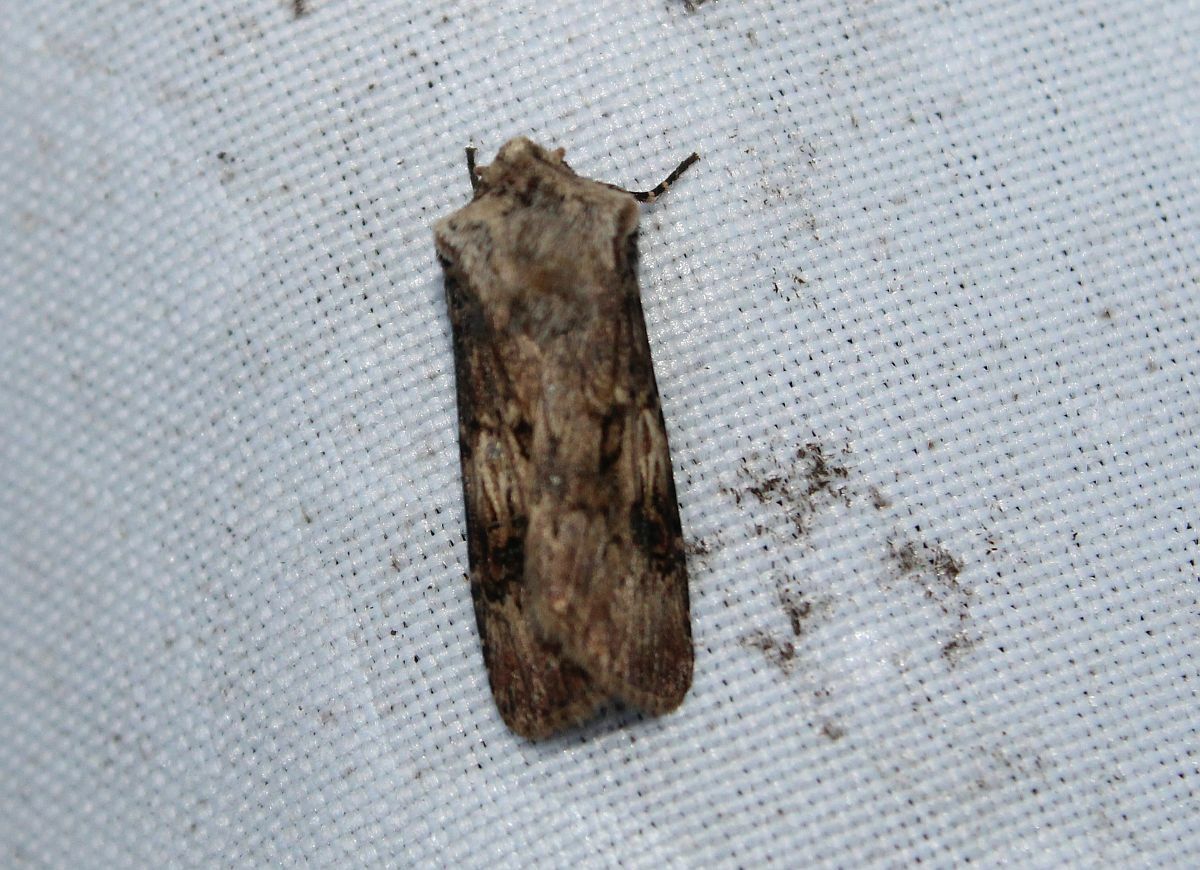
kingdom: Animalia
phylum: Arthropoda
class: Insecta
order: Lepidoptera
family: Noctuidae
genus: Agrotis
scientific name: Agrotis puta
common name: Shuttle-shaped dart
